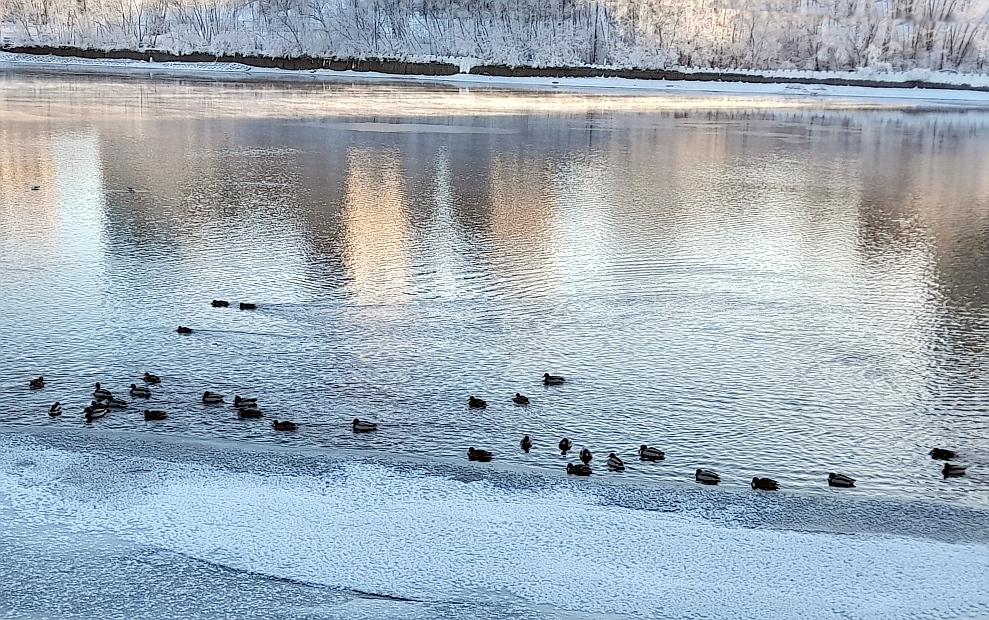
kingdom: Animalia
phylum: Chordata
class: Aves
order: Anseriformes
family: Anatidae
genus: Anas
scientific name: Anas platyrhynchos
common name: Mallard
